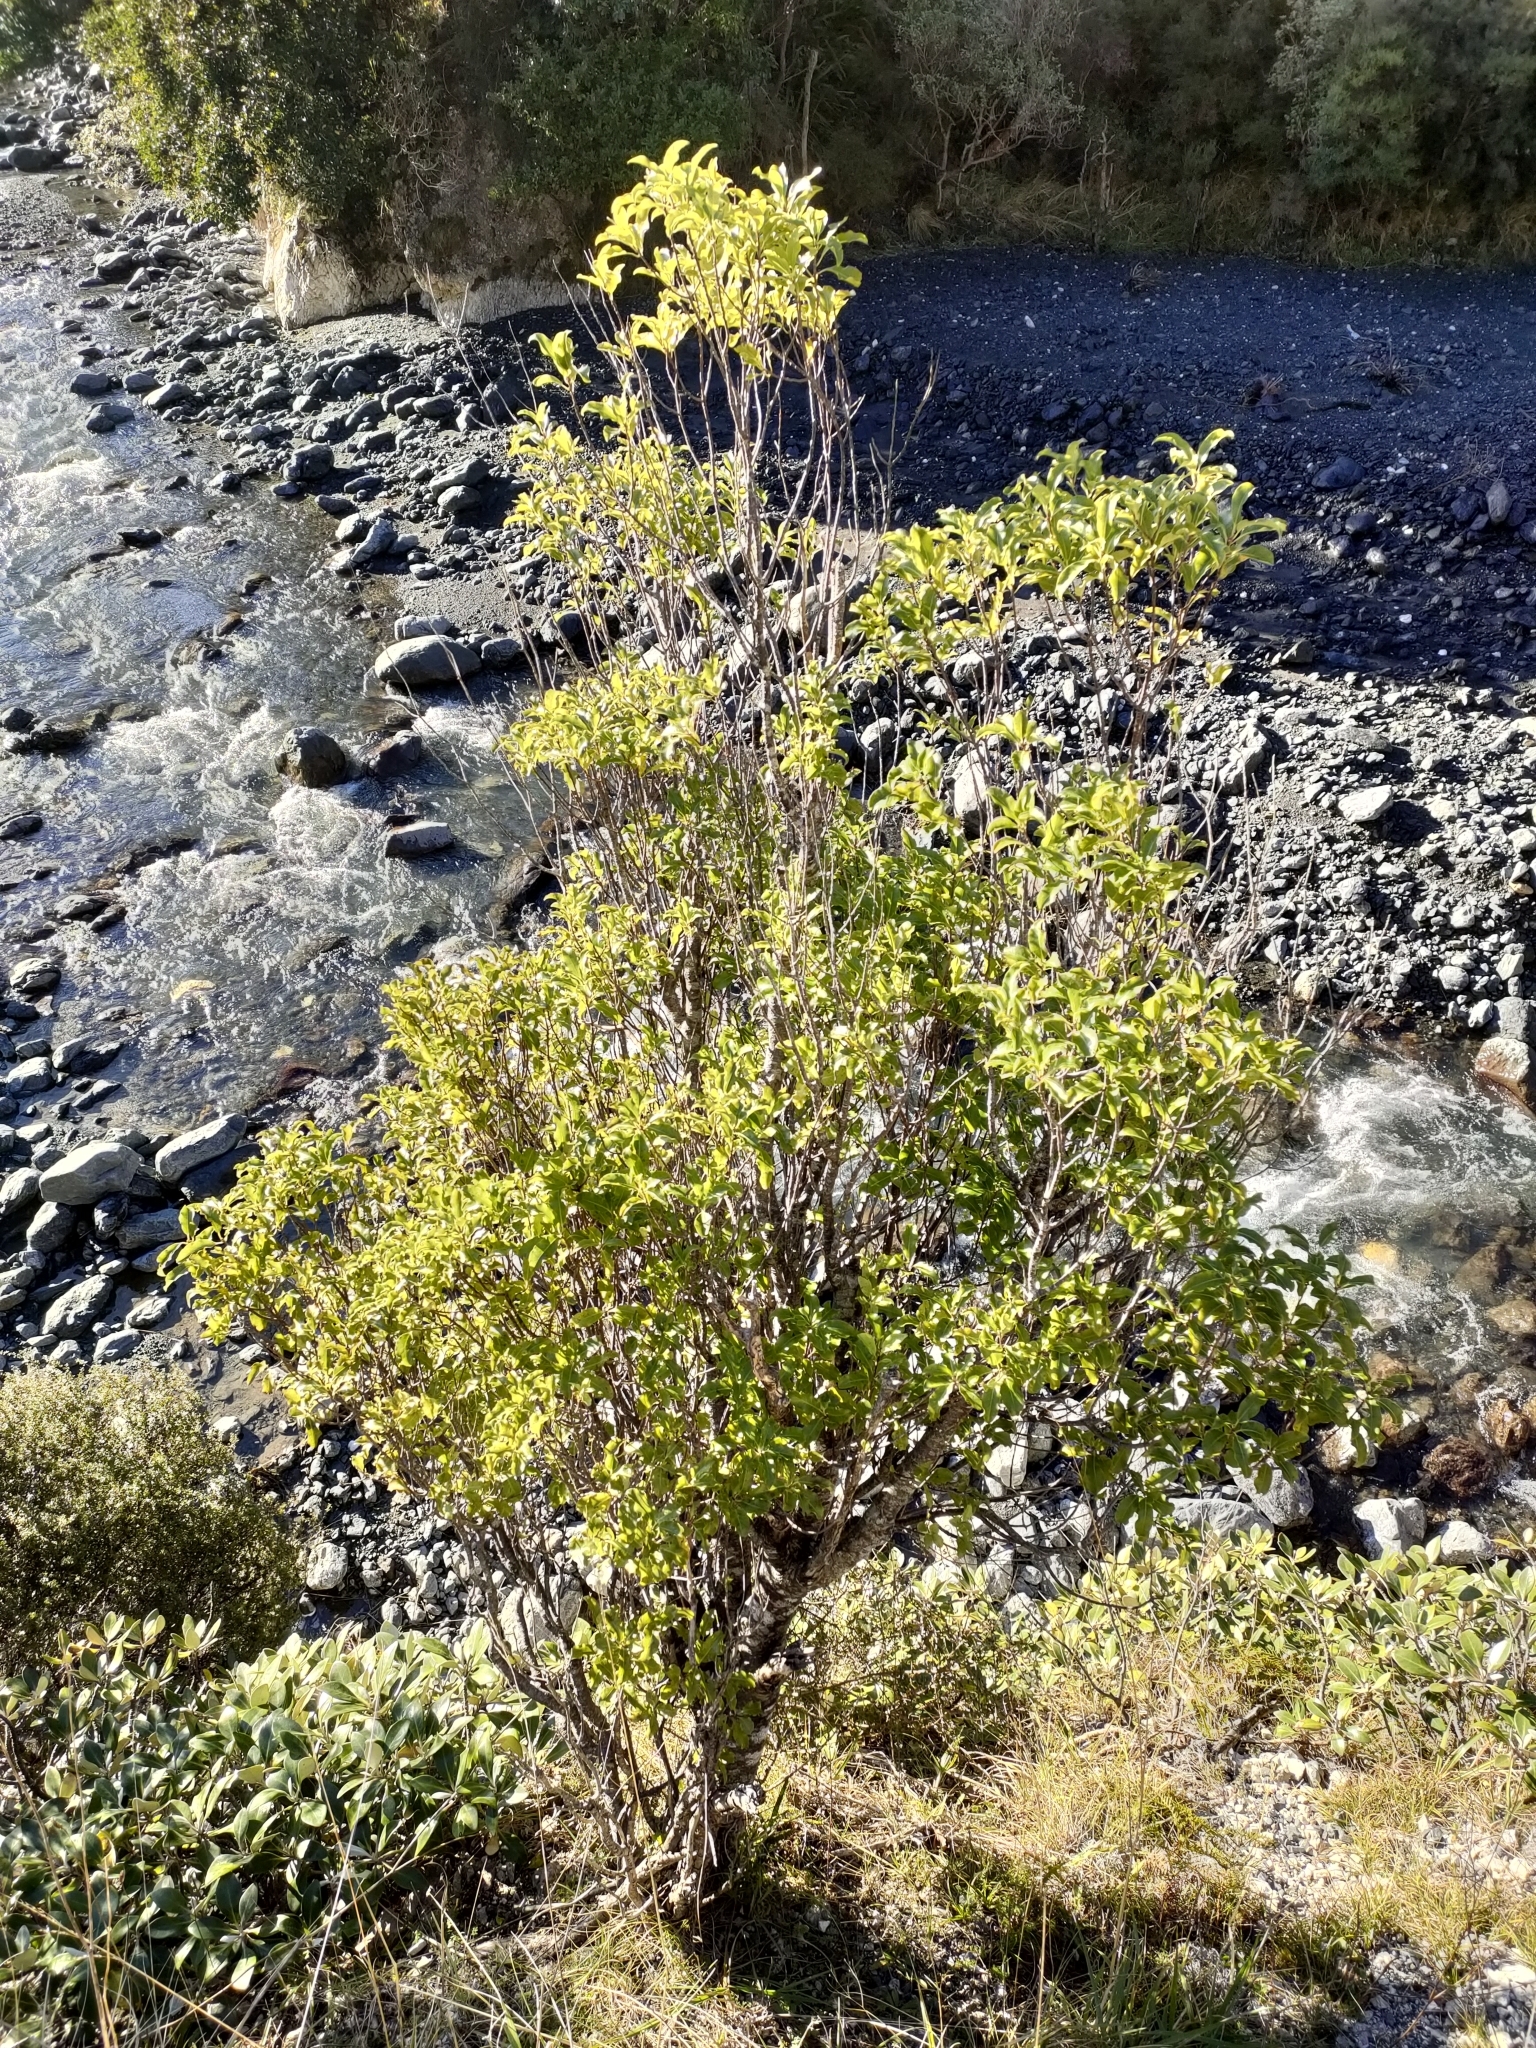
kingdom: Plantae
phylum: Tracheophyta
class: Magnoliopsida
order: Apiales
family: Pittosporaceae
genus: Pittosporum
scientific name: Pittosporum tenuifolium
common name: Kohuhu
